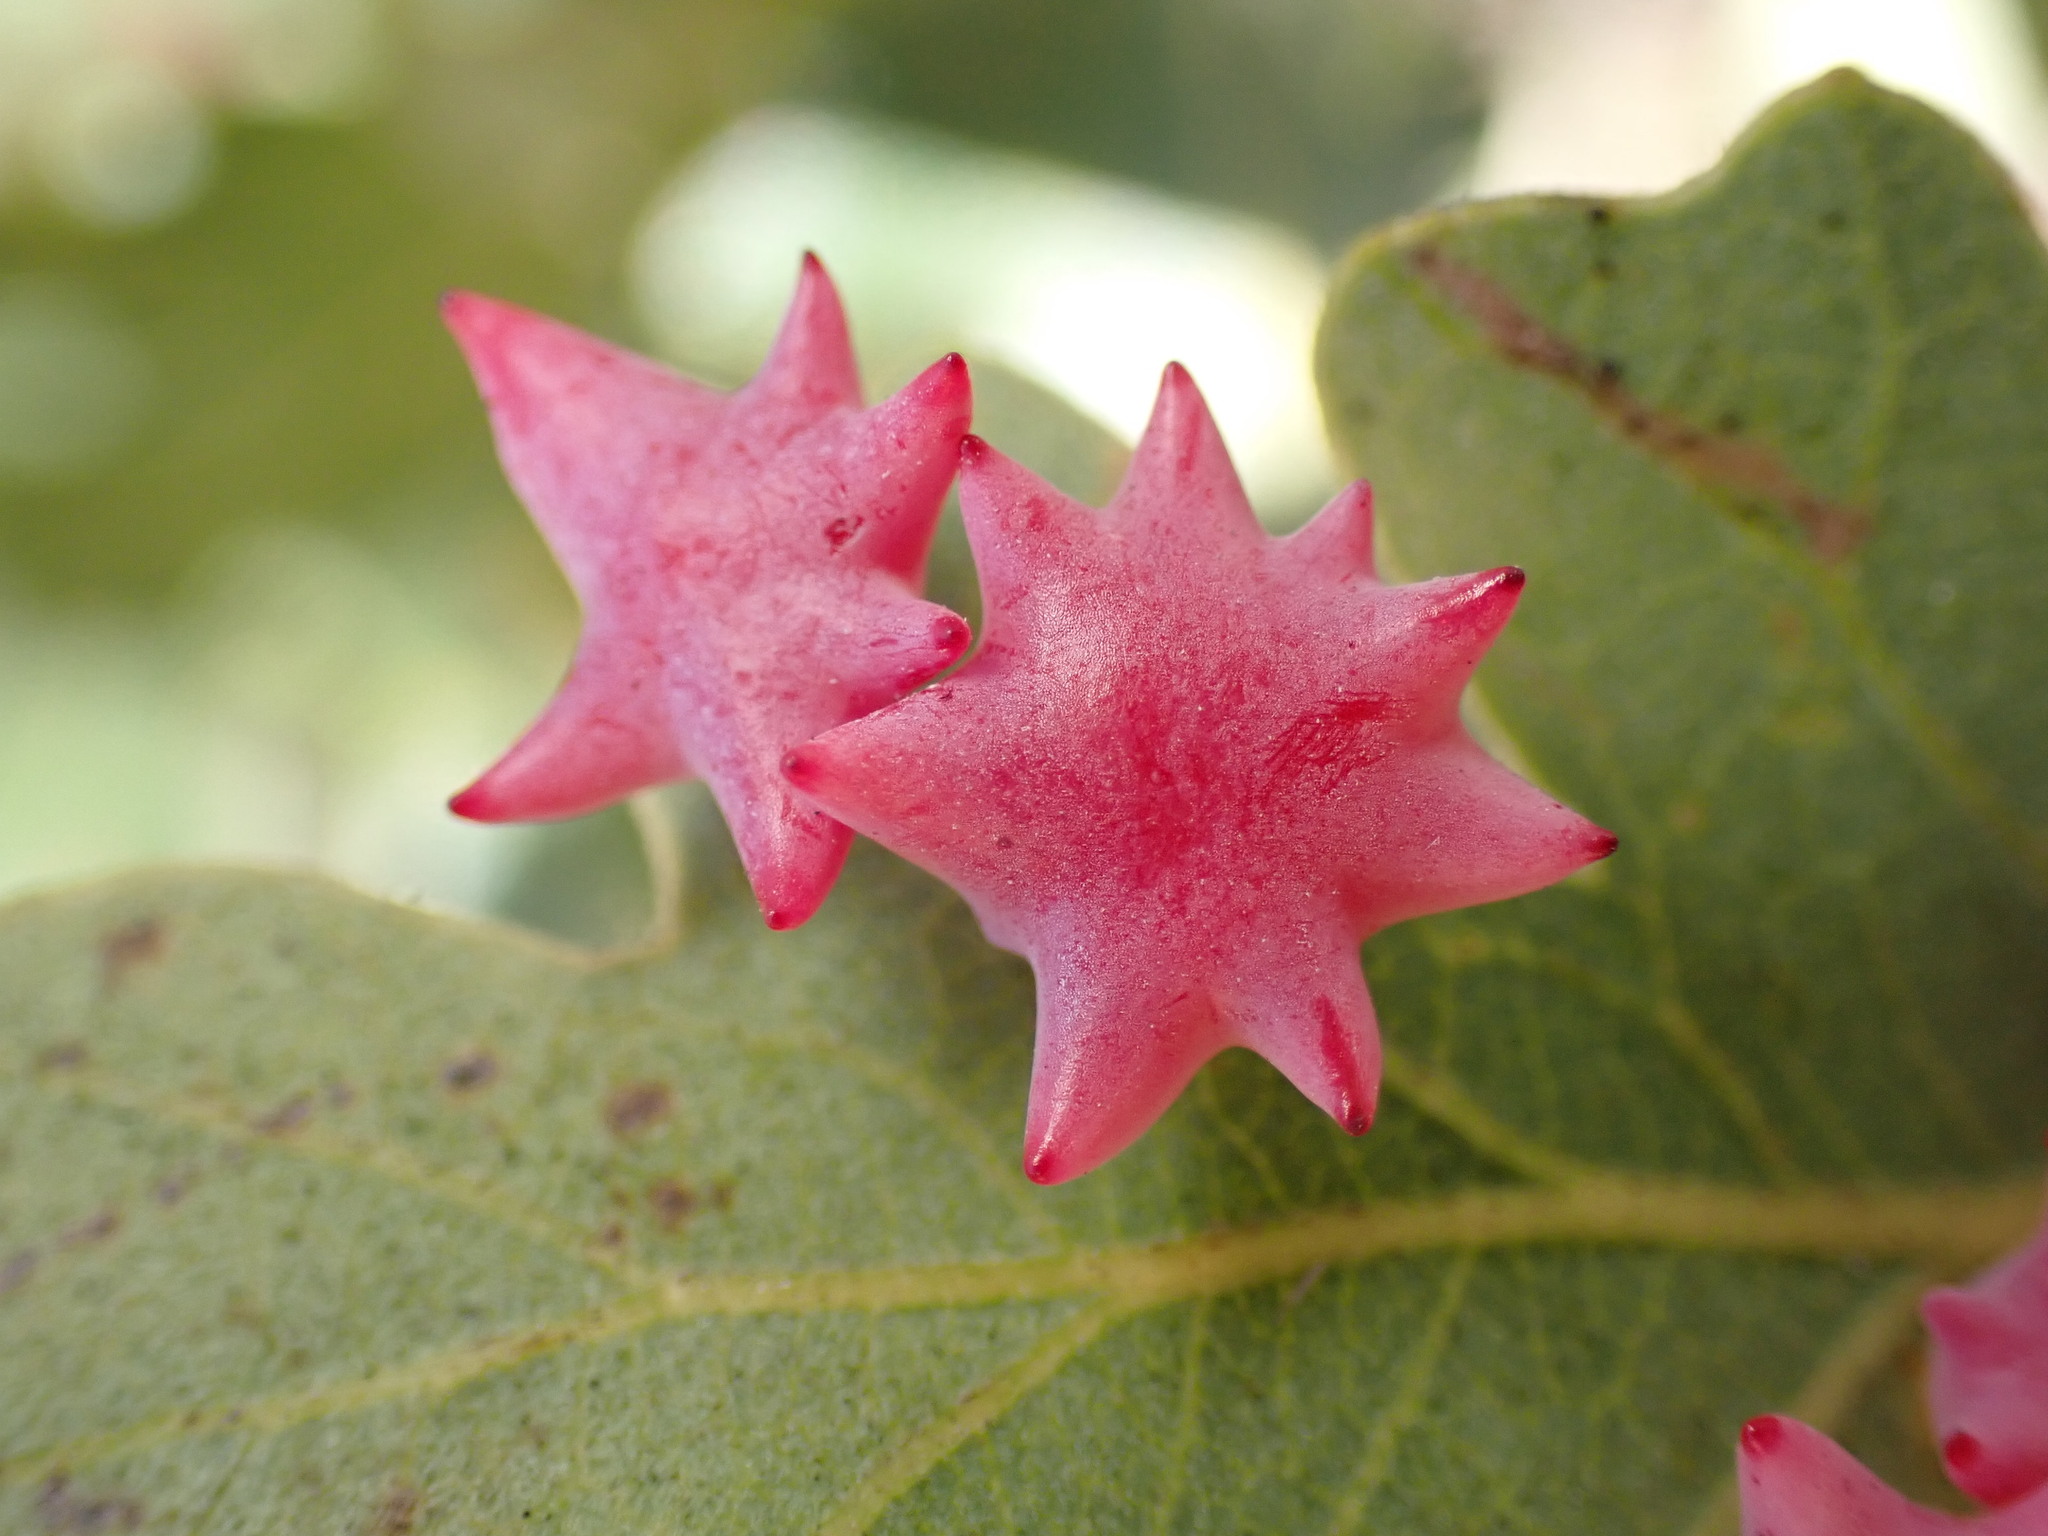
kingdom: Animalia
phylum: Arthropoda
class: Insecta
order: Hymenoptera
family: Cynipidae
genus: Cynips
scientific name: Cynips douglasi
